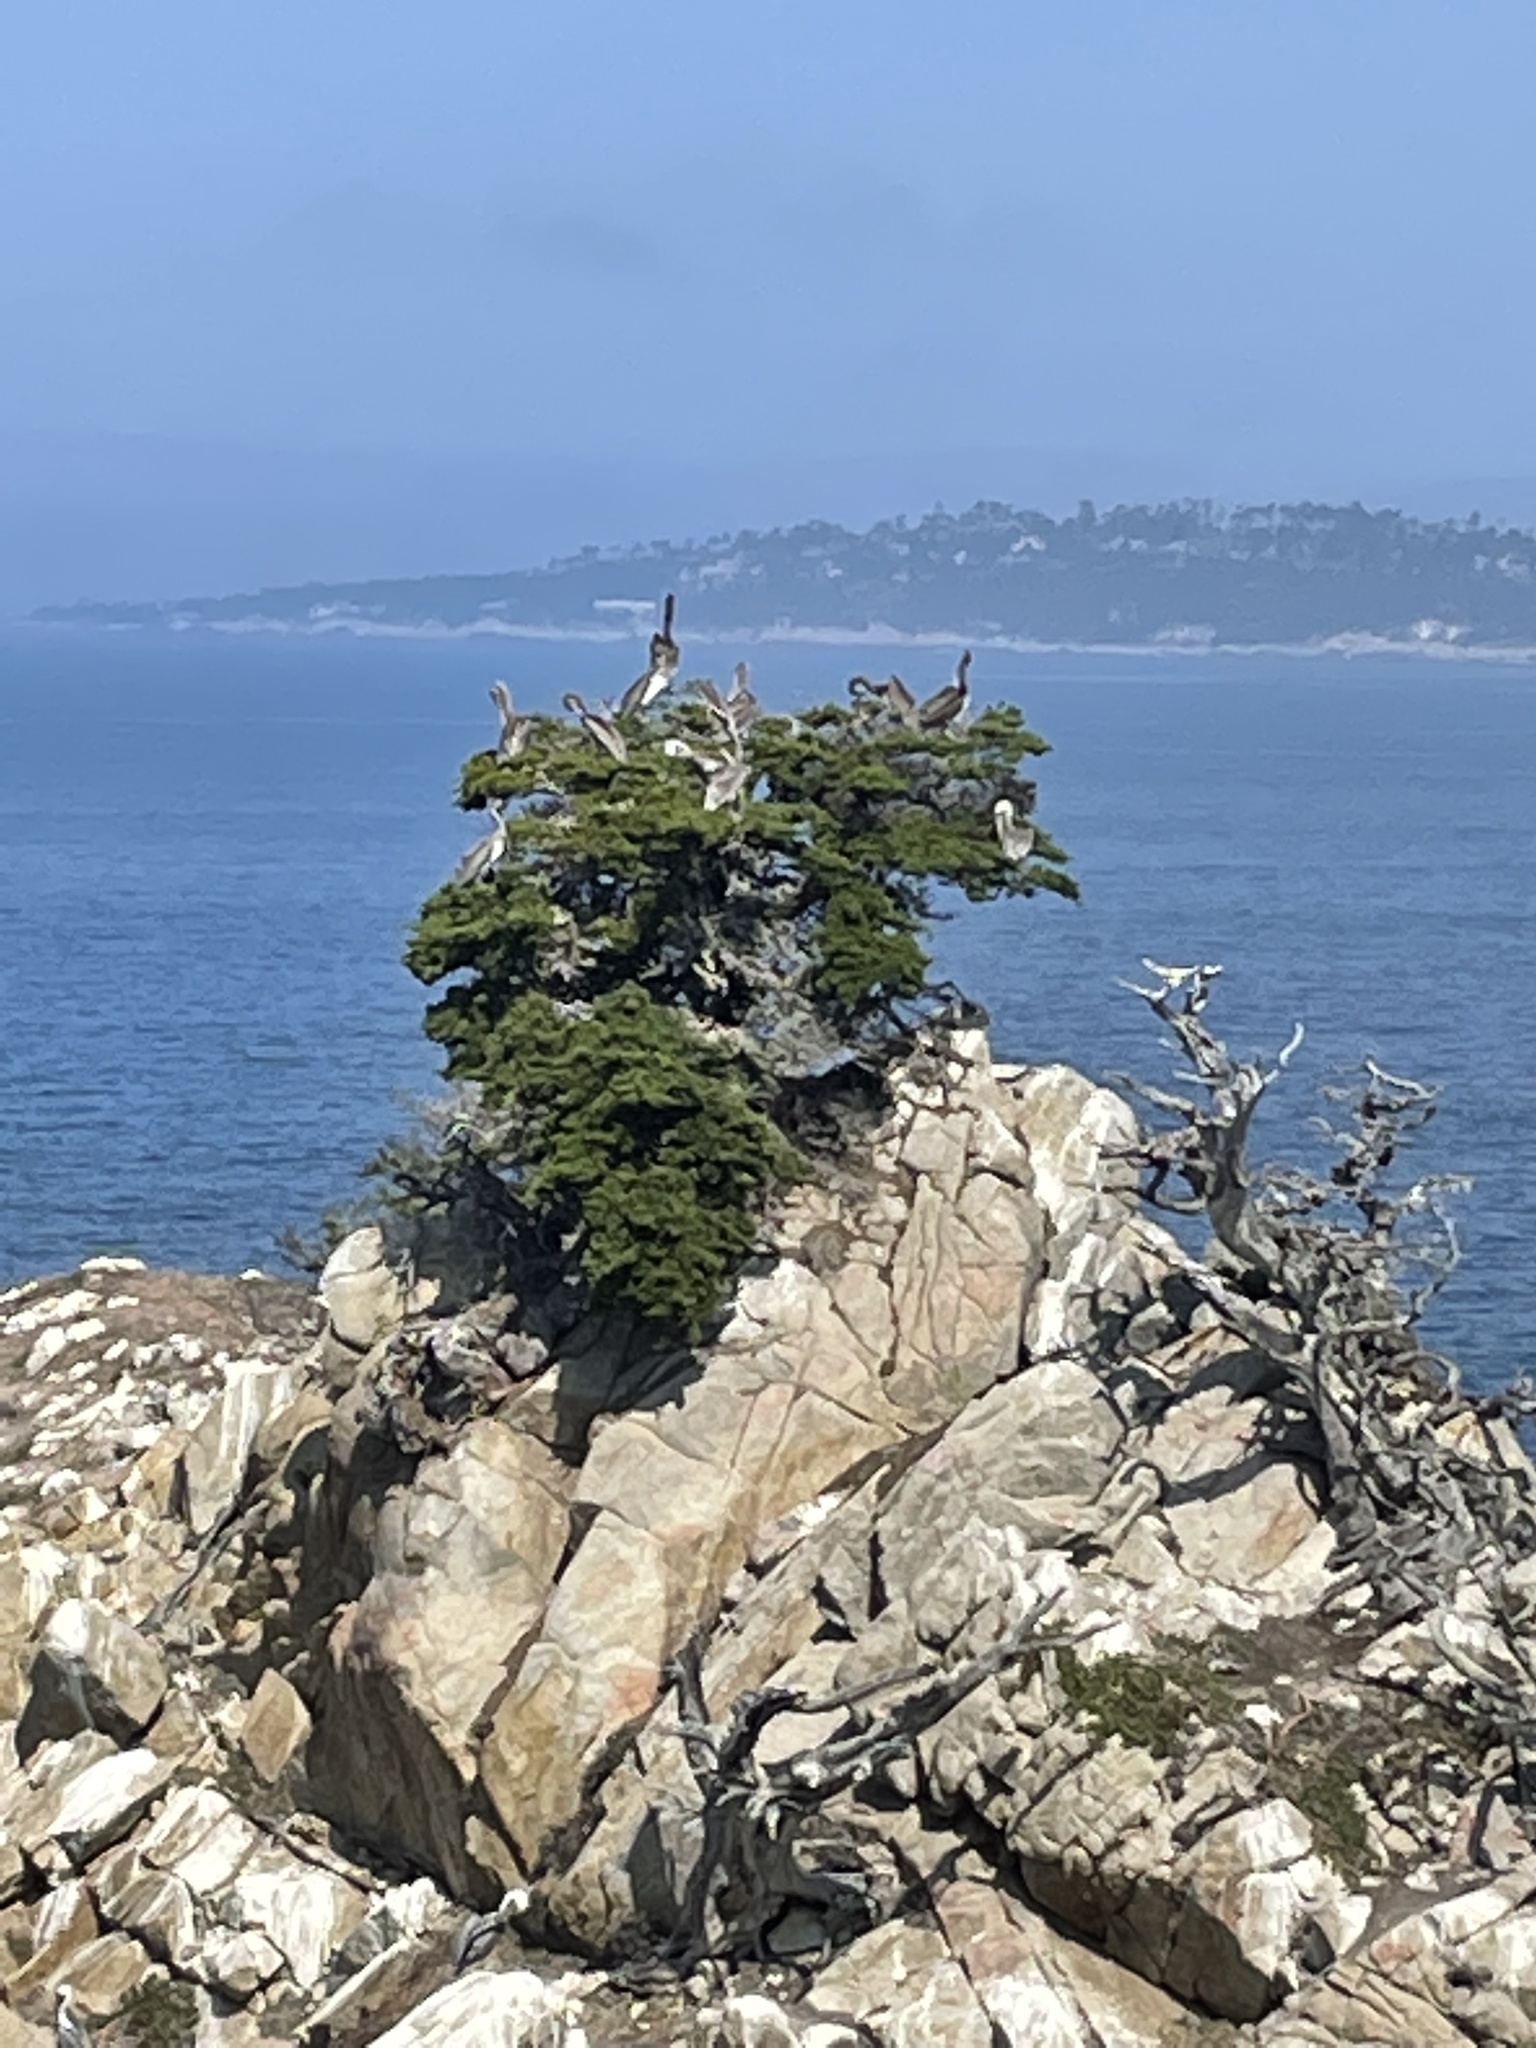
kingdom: Animalia
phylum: Chordata
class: Aves
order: Pelecaniformes
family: Pelecanidae
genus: Pelecanus
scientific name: Pelecanus occidentalis
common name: Brown pelican
